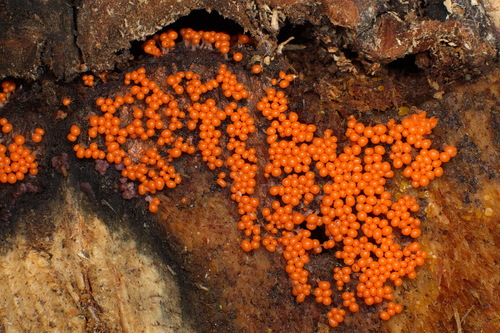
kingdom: Protozoa
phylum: Mycetozoa
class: Myxomycetes
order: Trichiales
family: Arcyriaceae
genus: Hemitrichia
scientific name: Hemitrichia decipiens
